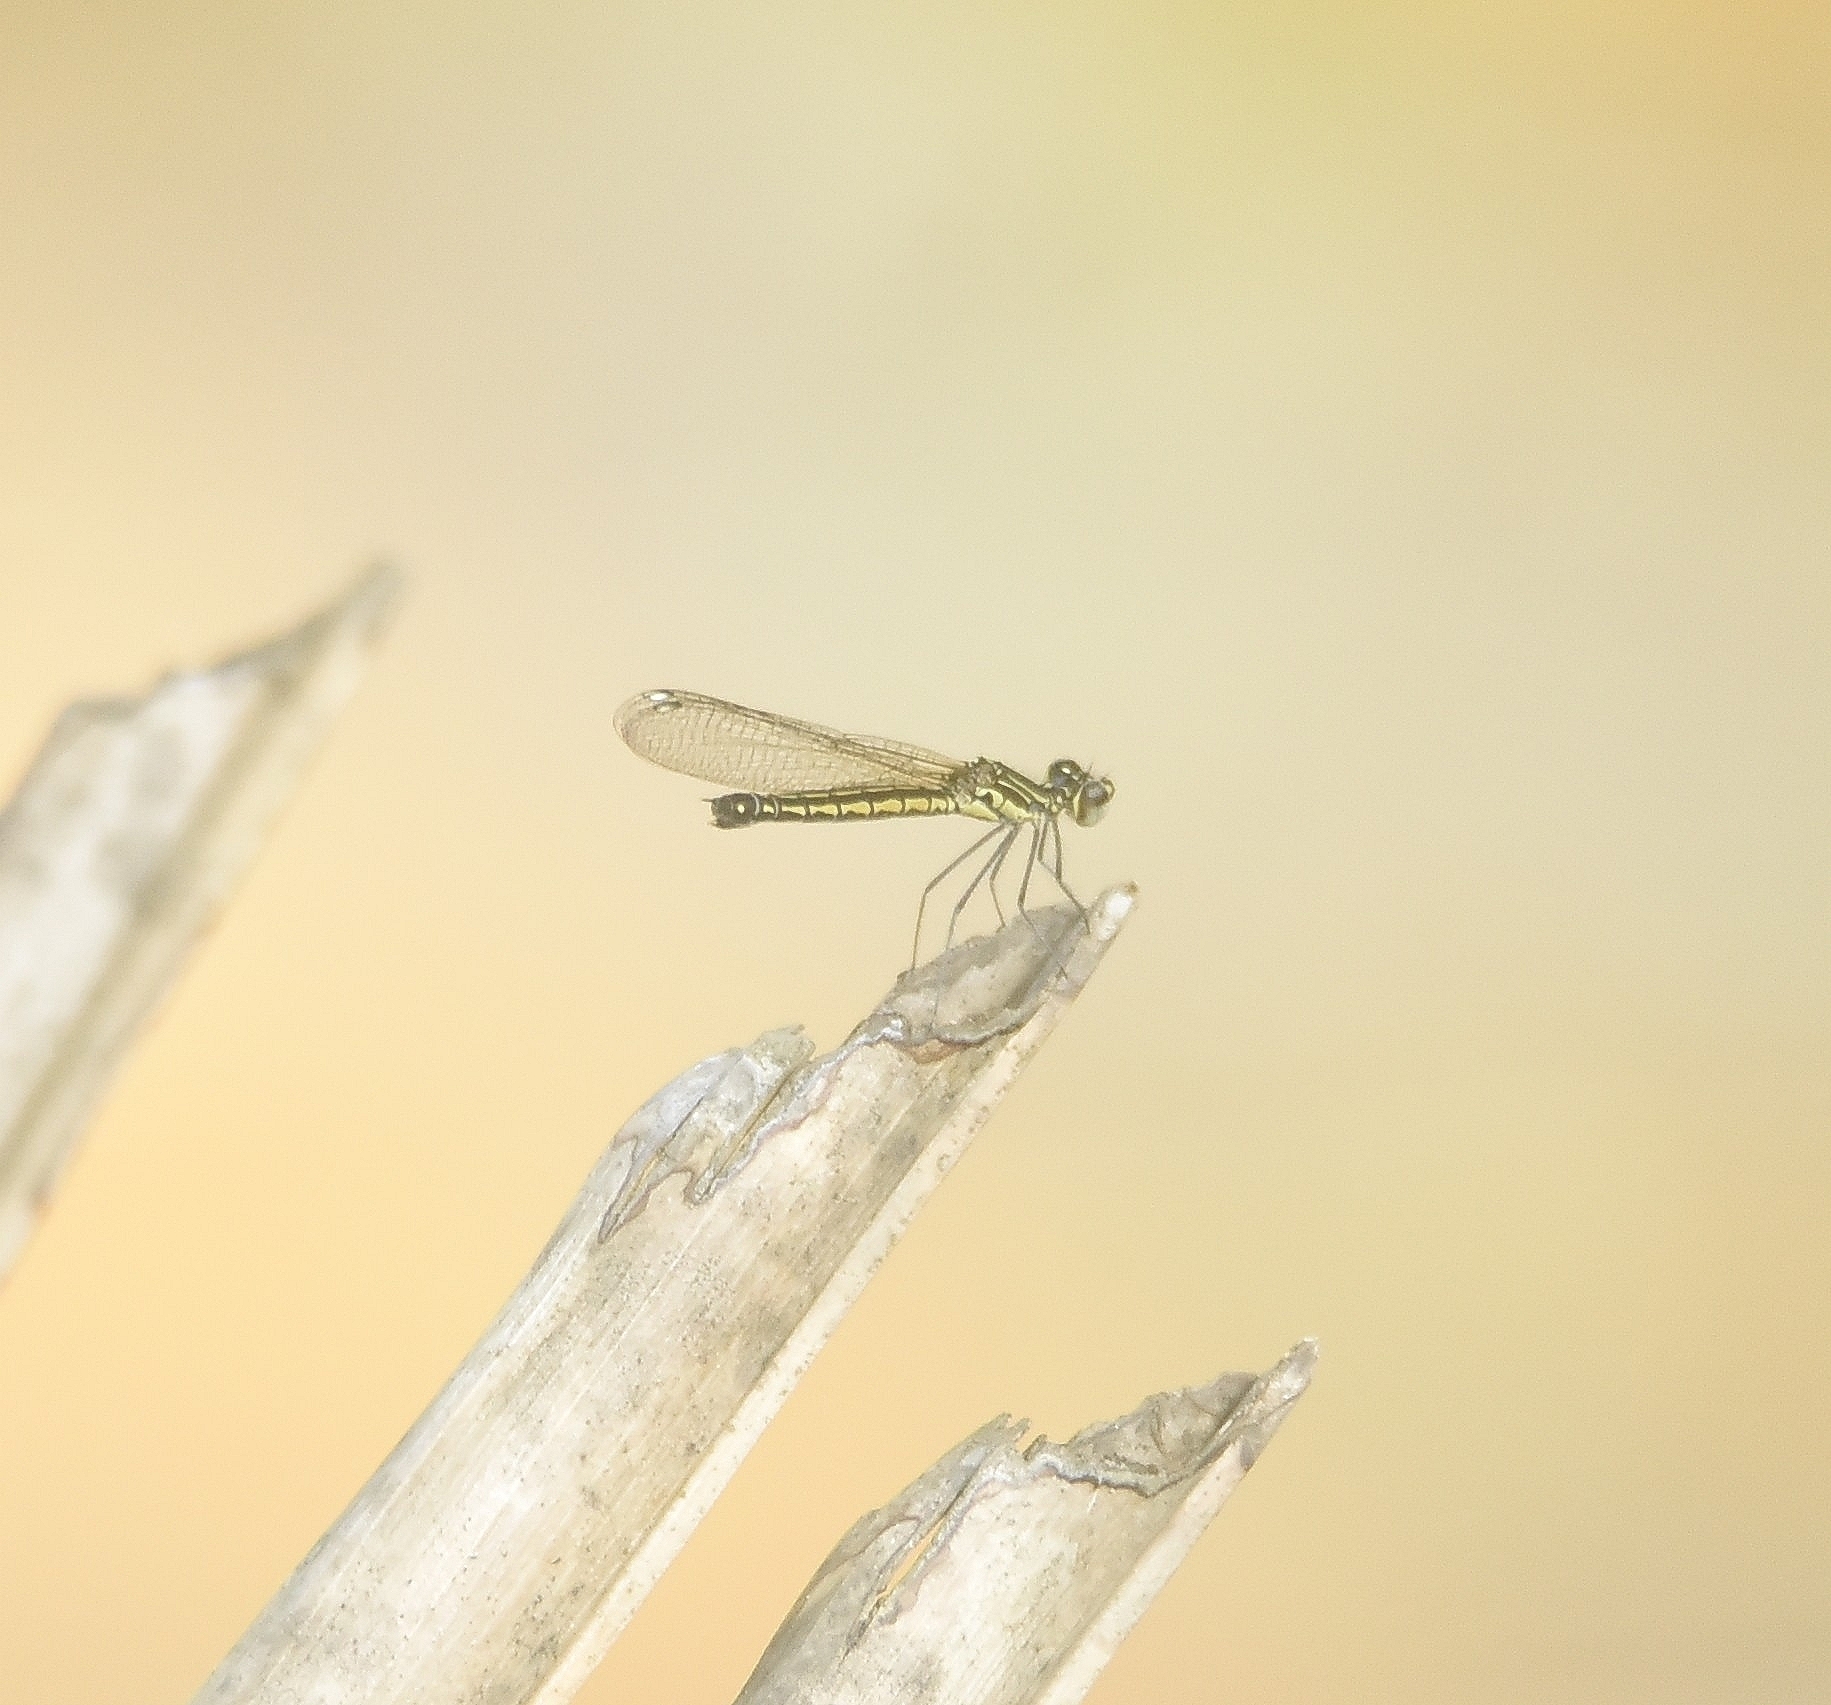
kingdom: Animalia
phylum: Arthropoda
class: Insecta
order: Odonata
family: Chlorocyphidae
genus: Libellago
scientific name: Libellago indica
